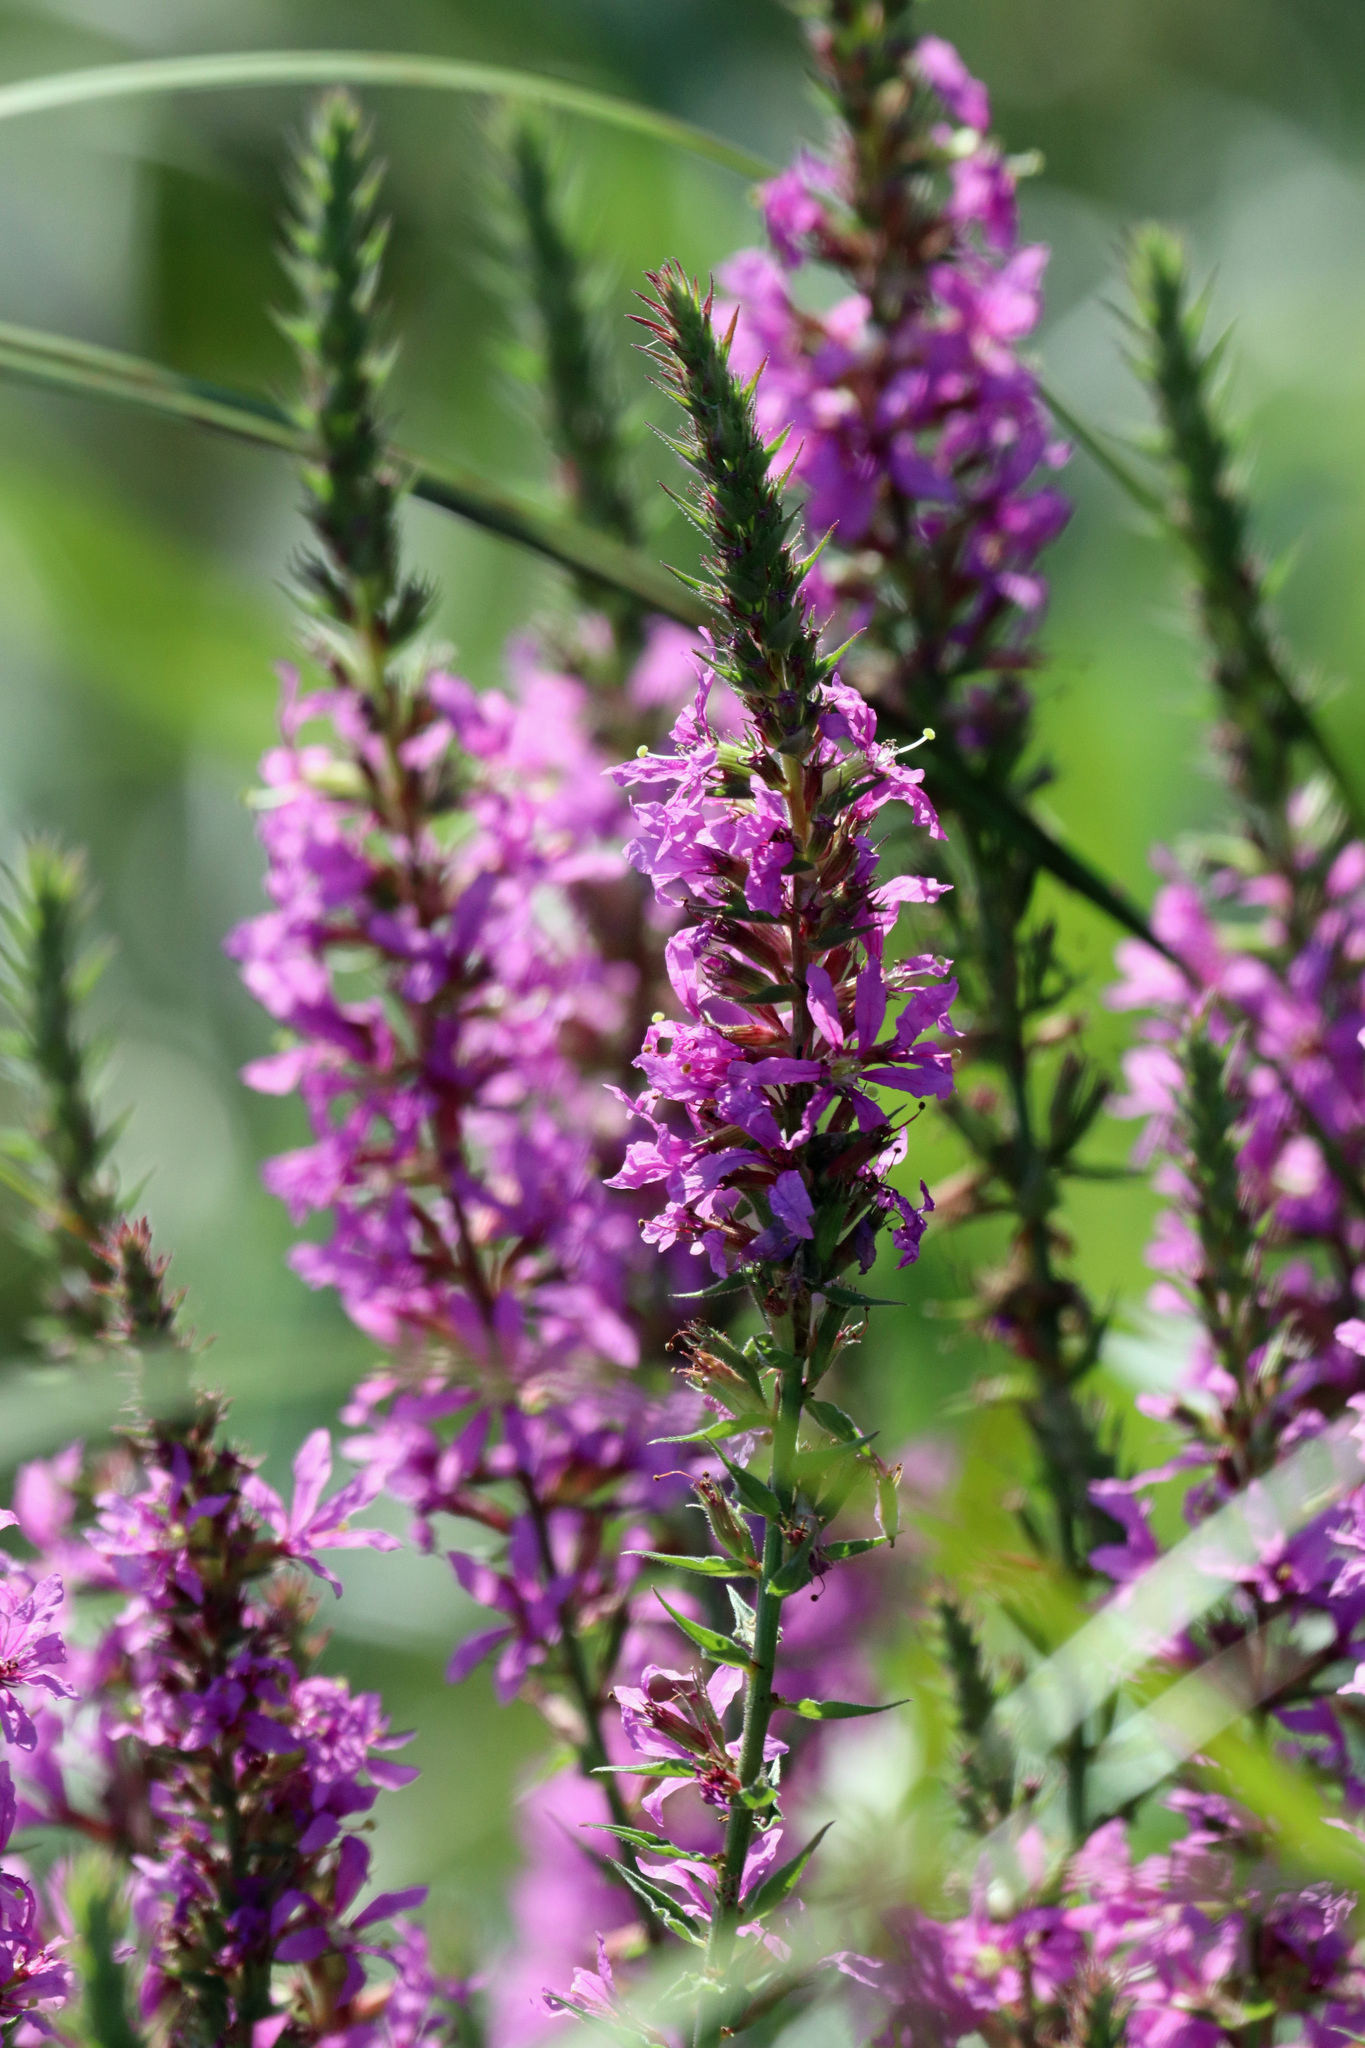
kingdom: Plantae
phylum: Tracheophyta
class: Magnoliopsida
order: Myrtales
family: Lythraceae
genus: Lythrum
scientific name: Lythrum salicaria
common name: Purple loosestrife
